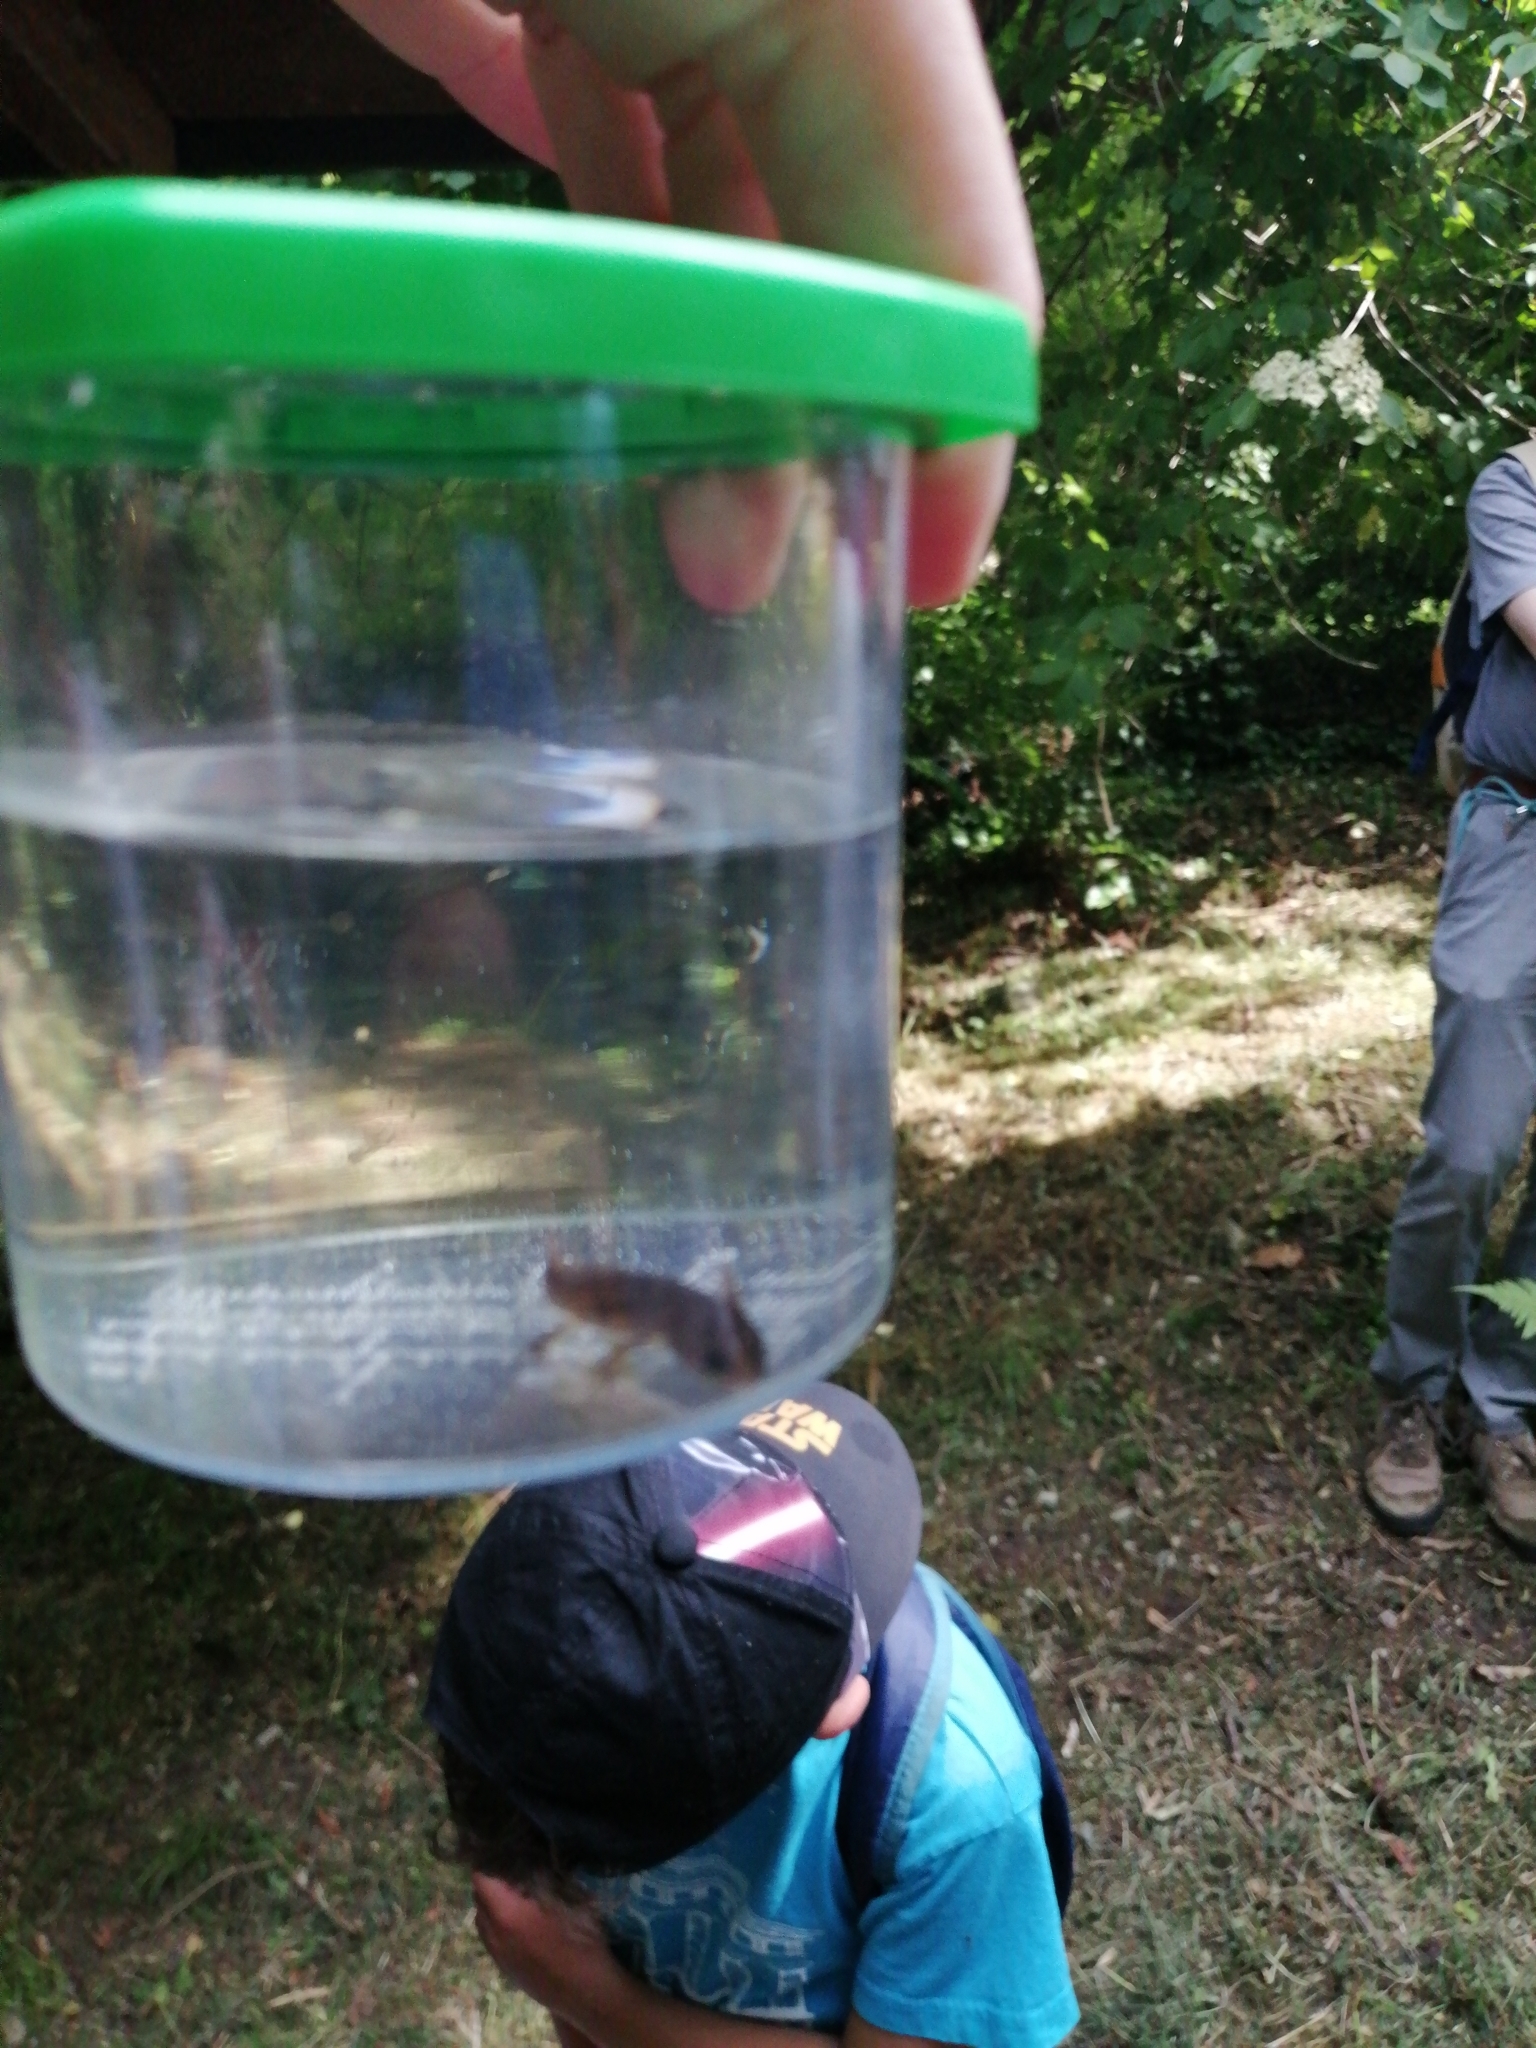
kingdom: Animalia
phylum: Chordata
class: Amphibia
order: Caudata
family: Salamandridae
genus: Salamandra
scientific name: Salamandra salamandra
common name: Fire salamander
